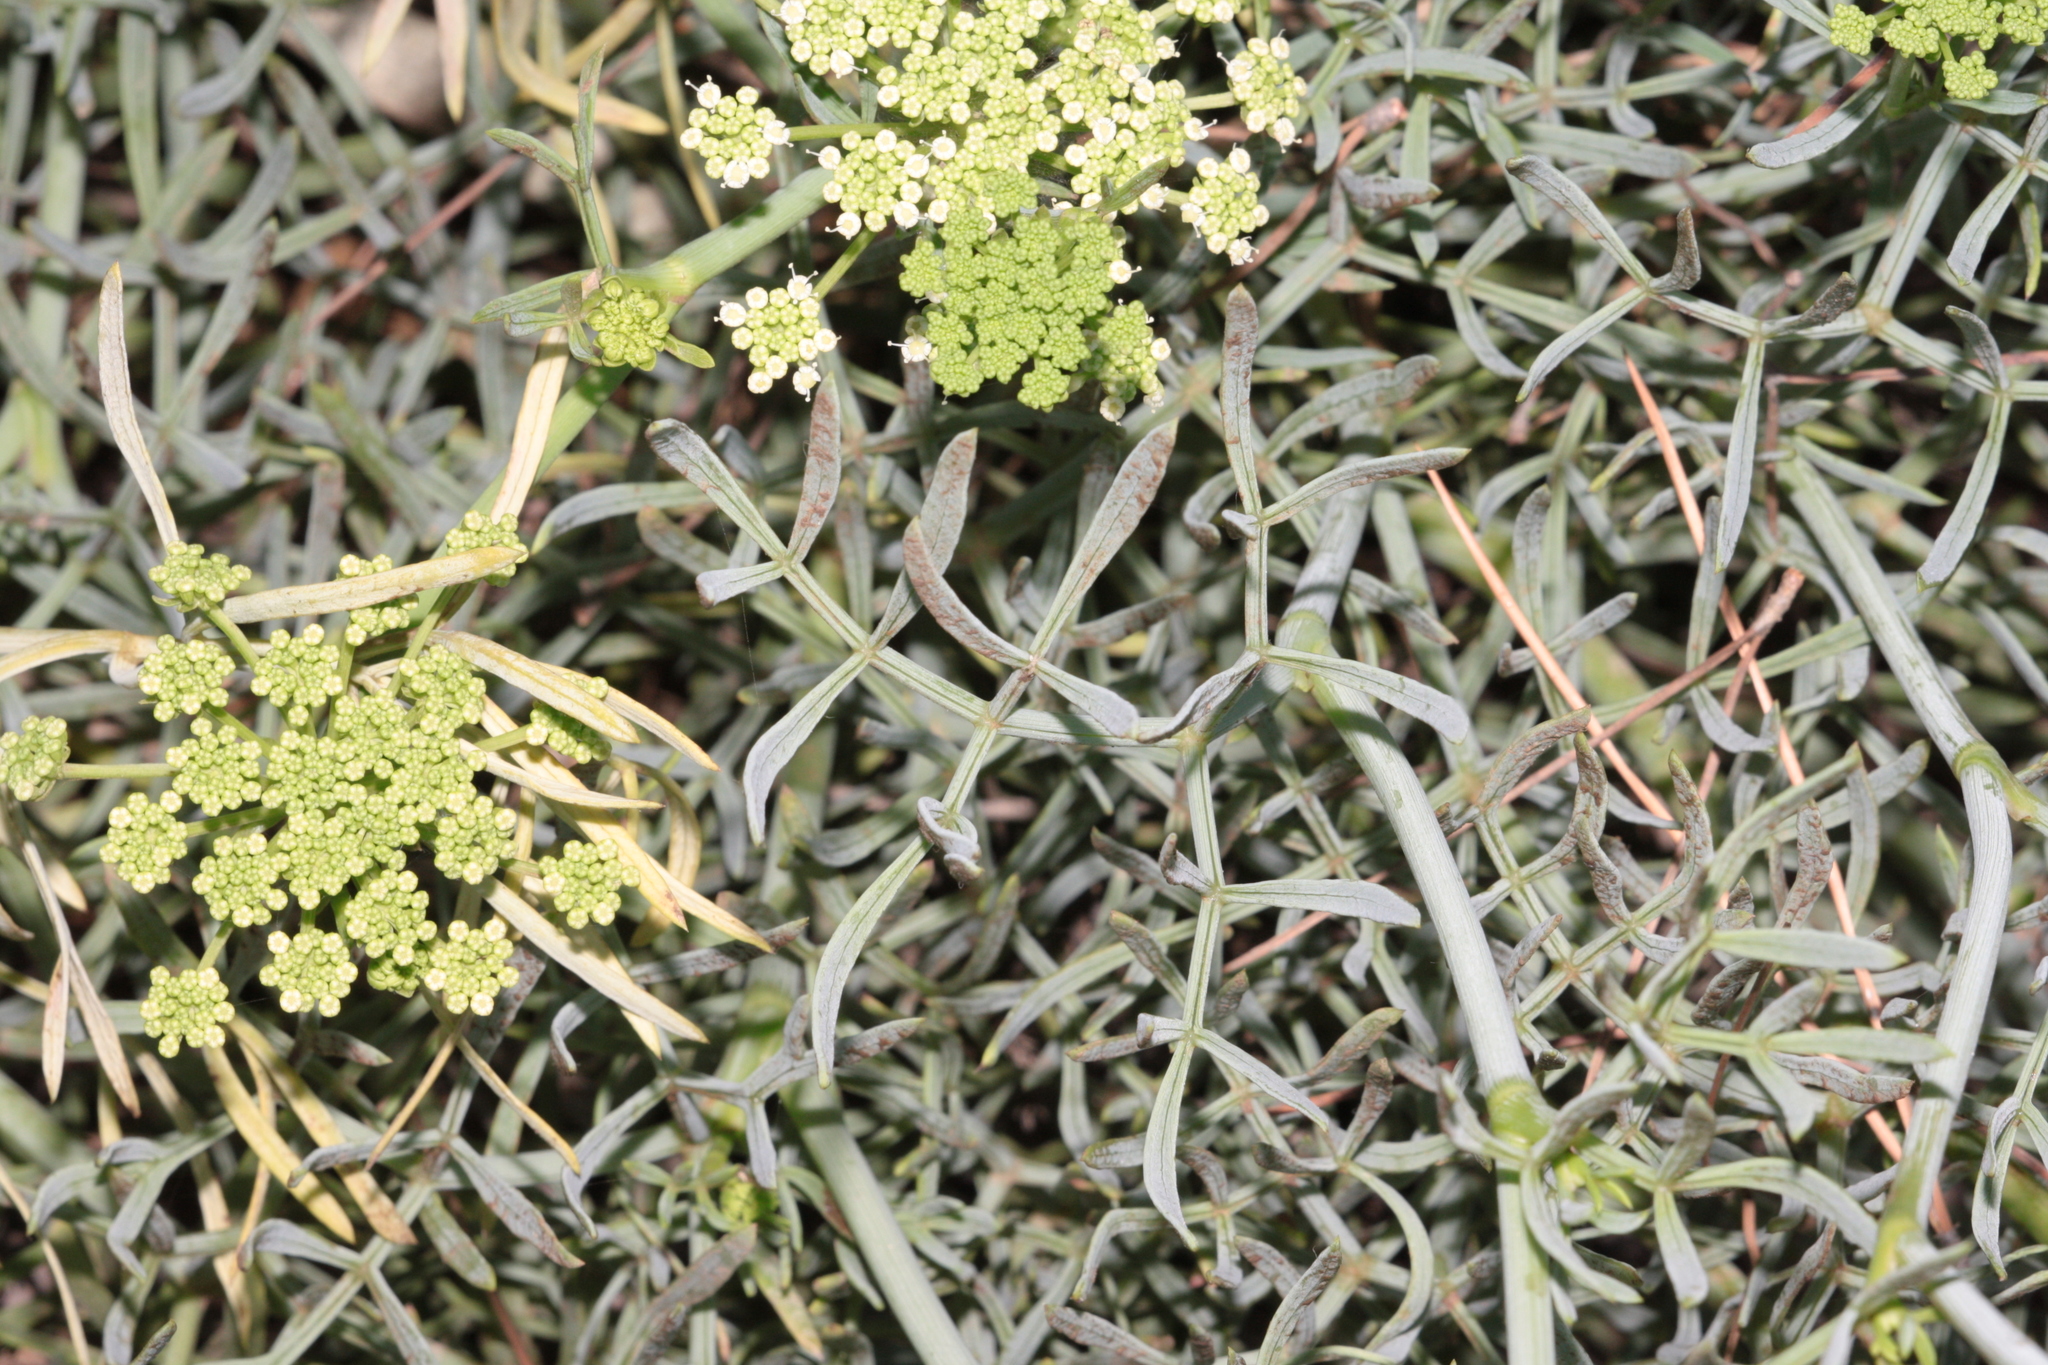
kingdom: Plantae
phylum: Tracheophyta
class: Magnoliopsida
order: Apiales
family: Apiaceae
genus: Crithmum
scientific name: Crithmum maritimum
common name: Rock samphire
